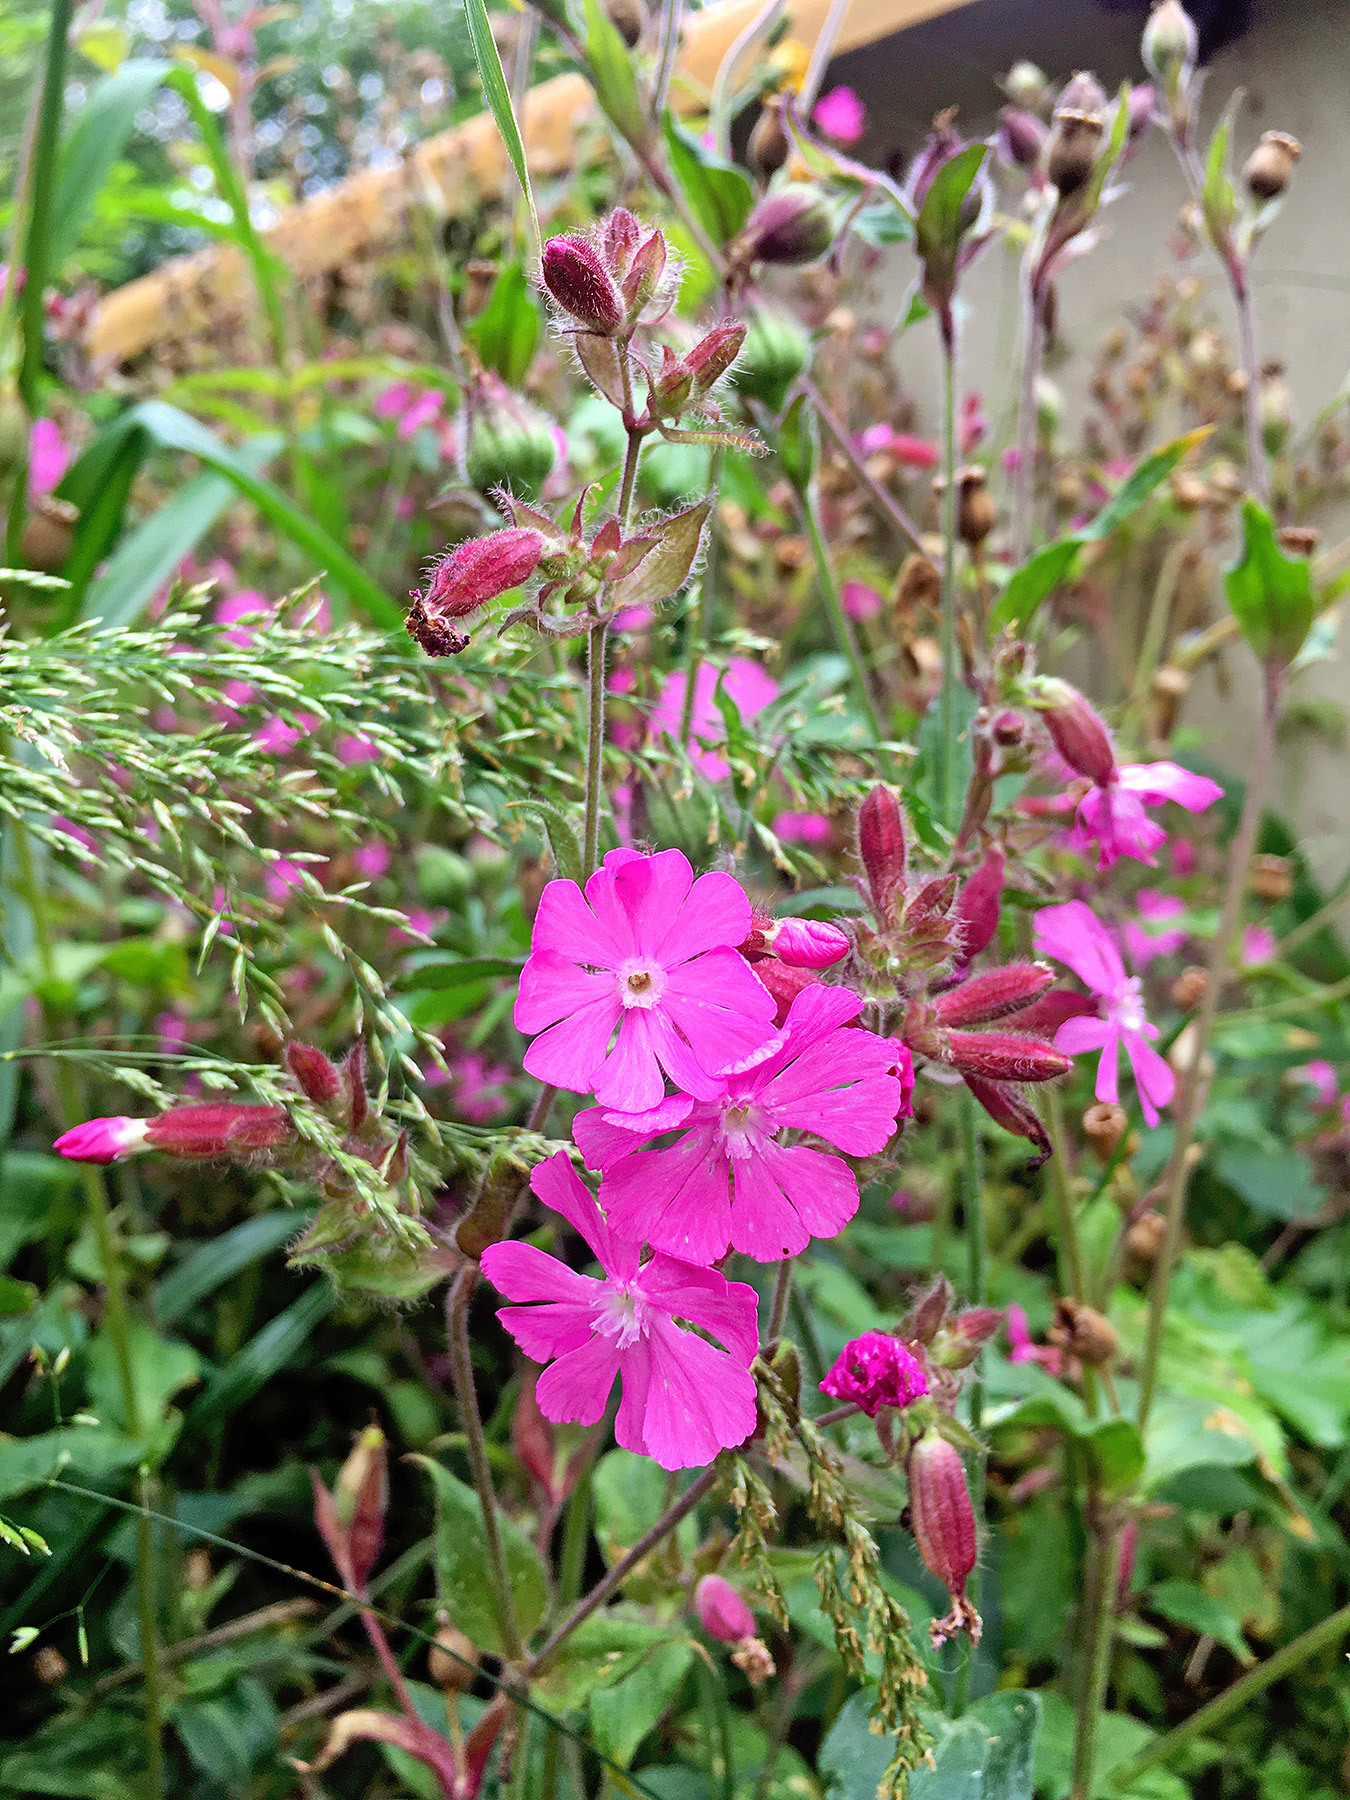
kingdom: Plantae
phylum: Tracheophyta
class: Magnoliopsida
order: Caryophyllales
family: Caryophyllaceae
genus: Silene
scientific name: Silene dioica
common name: Red campion
